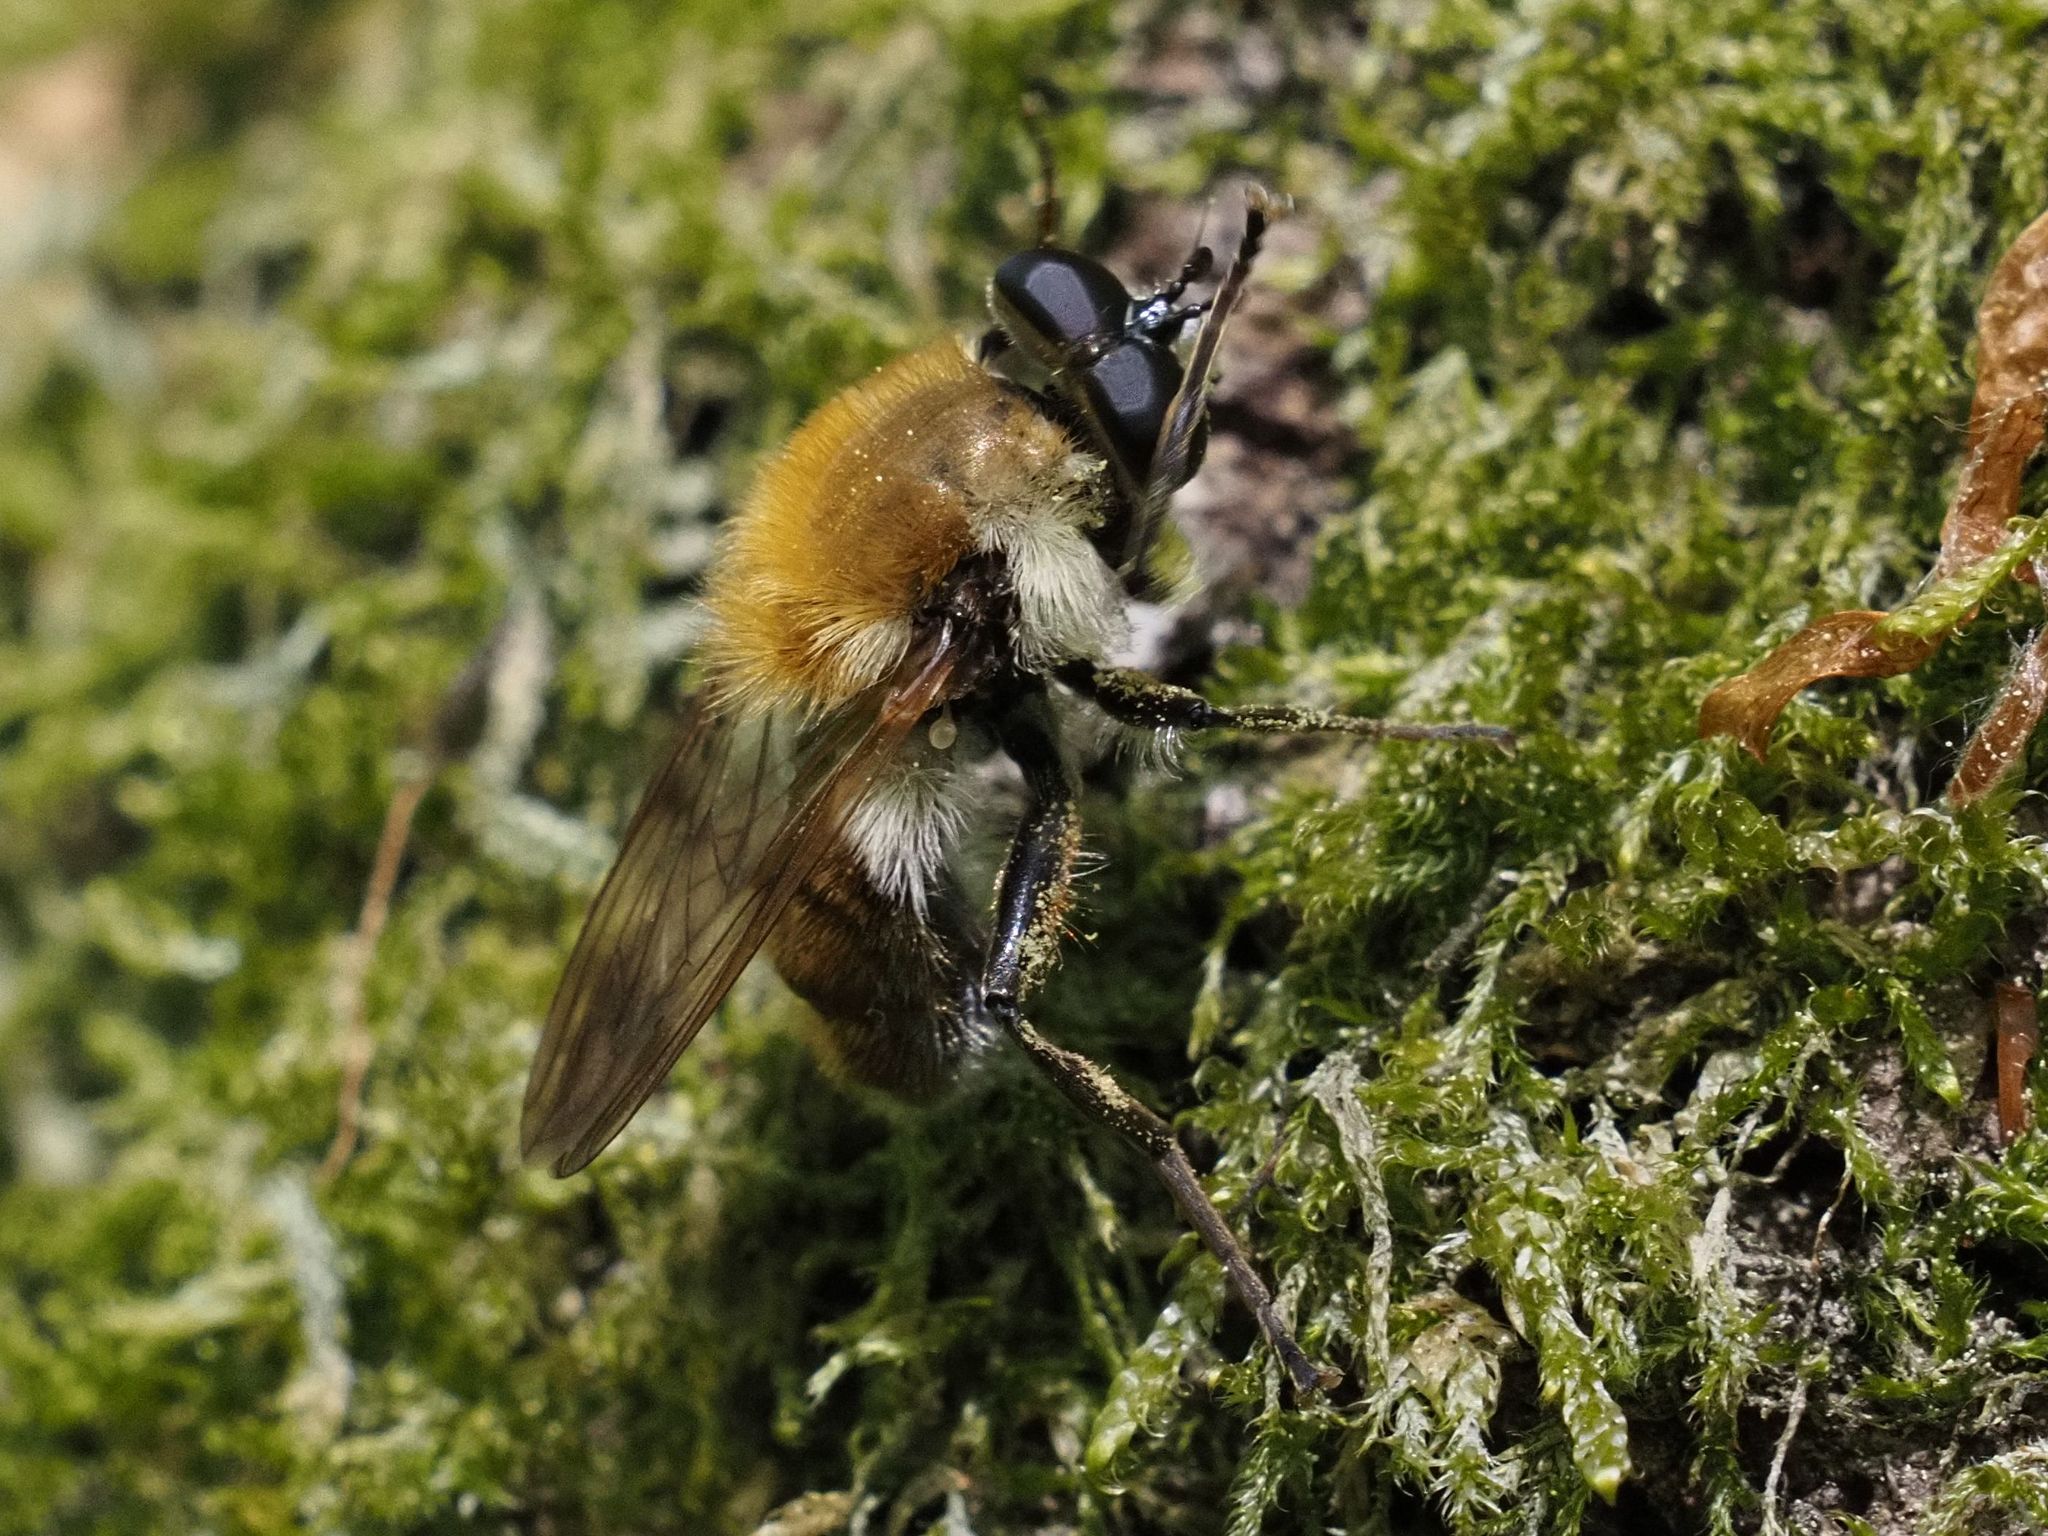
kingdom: Animalia
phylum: Arthropoda
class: Insecta
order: Diptera
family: Syrphidae
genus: Criorhina
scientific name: Criorhina floccosa
